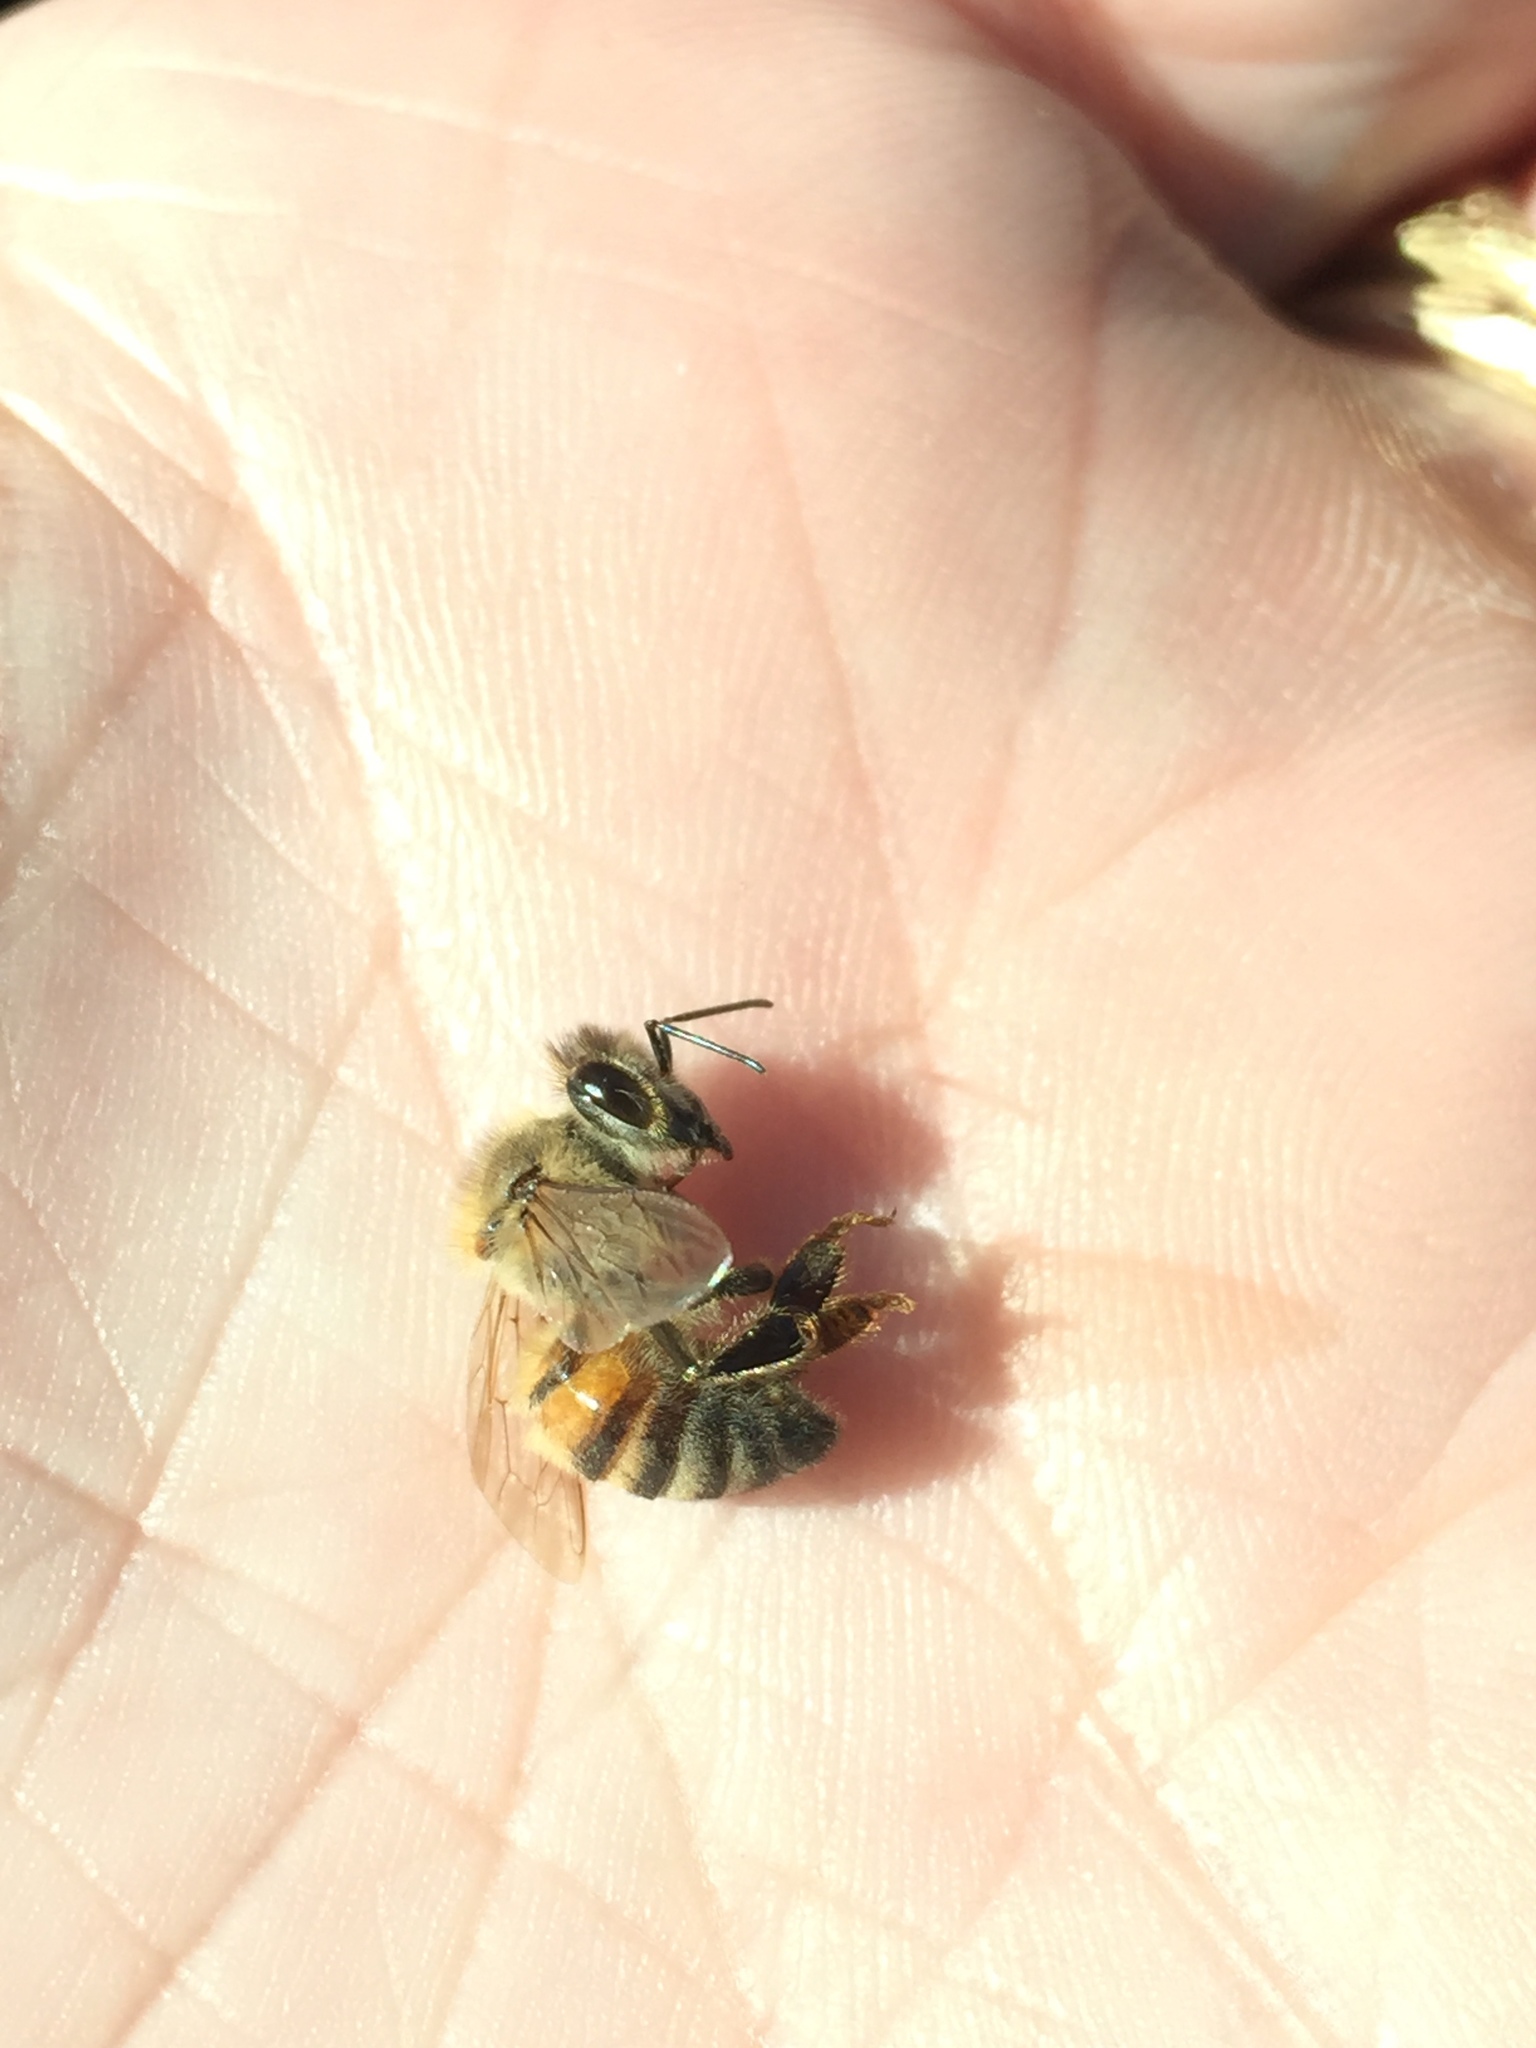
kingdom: Animalia
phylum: Arthropoda
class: Insecta
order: Hymenoptera
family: Apidae
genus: Apis
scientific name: Apis mellifera
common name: Honey bee
